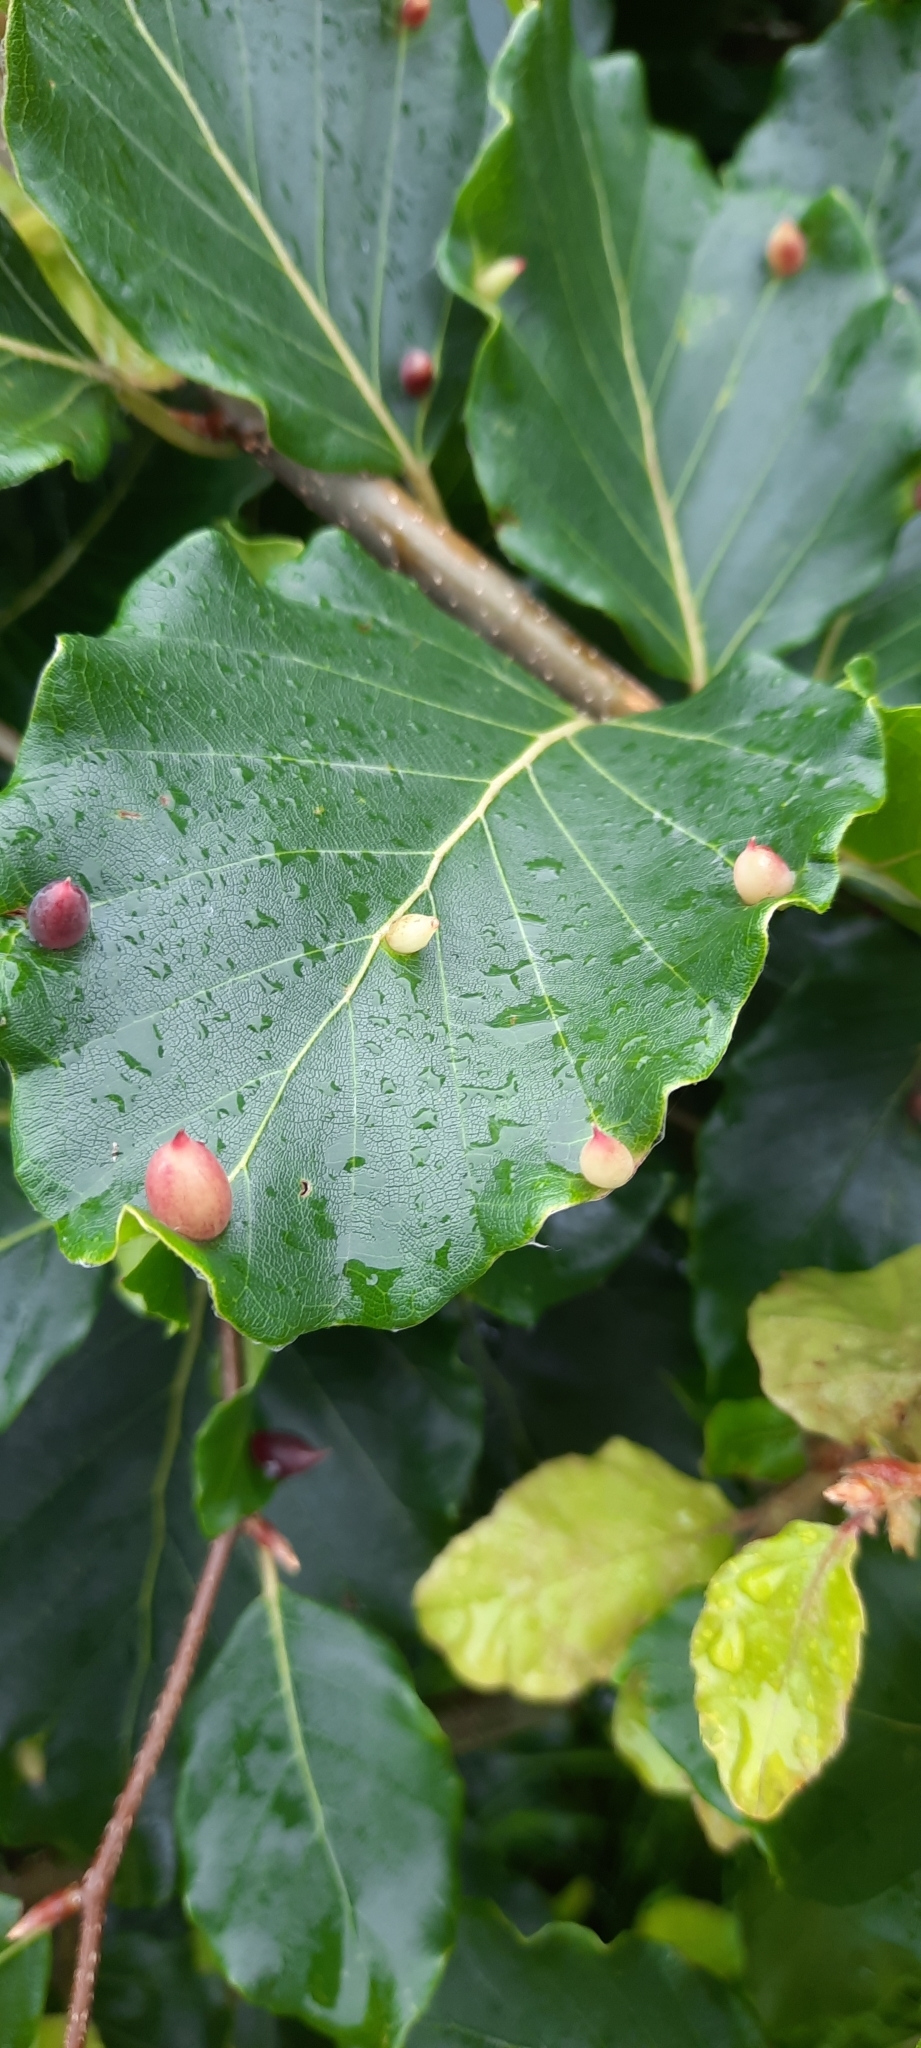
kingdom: Animalia
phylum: Arthropoda
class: Insecta
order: Diptera
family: Cecidomyiidae
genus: Mikiola
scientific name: Mikiola fagi
